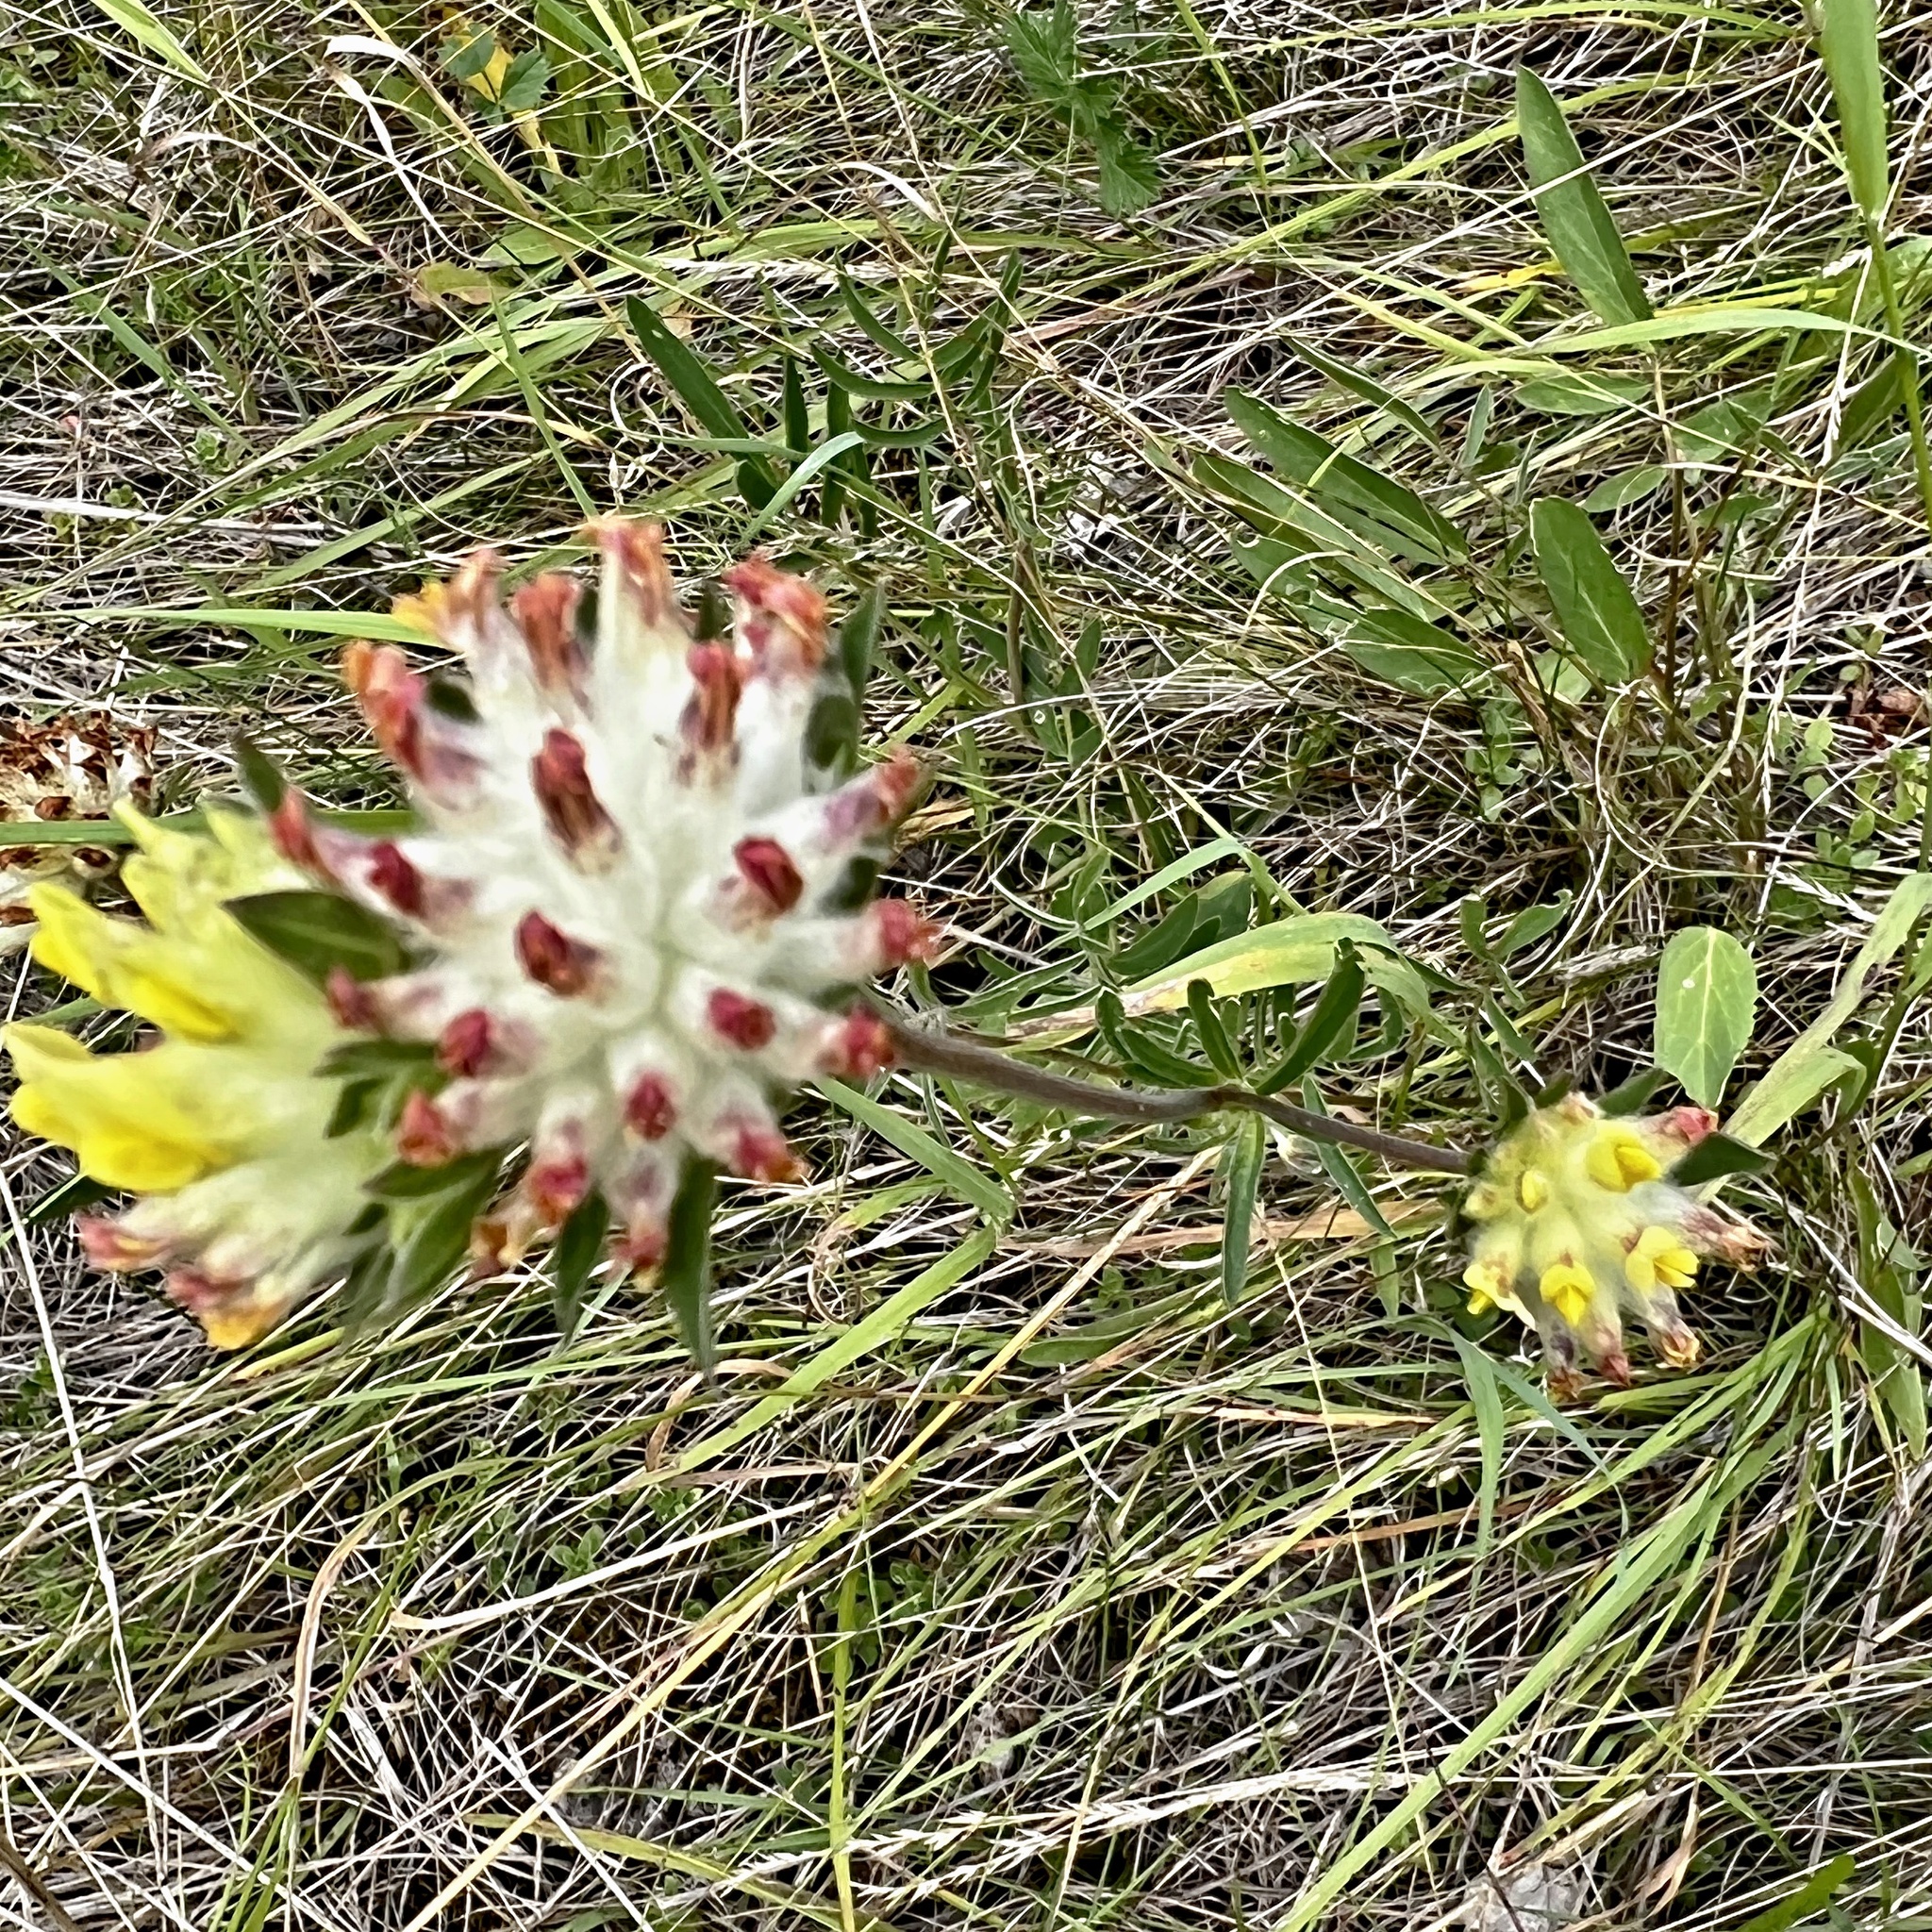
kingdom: Plantae
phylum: Tracheophyta
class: Magnoliopsida
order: Fabales
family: Fabaceae
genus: Anthyllis
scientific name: Anthyllis vulneraria
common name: Kidney vetch
